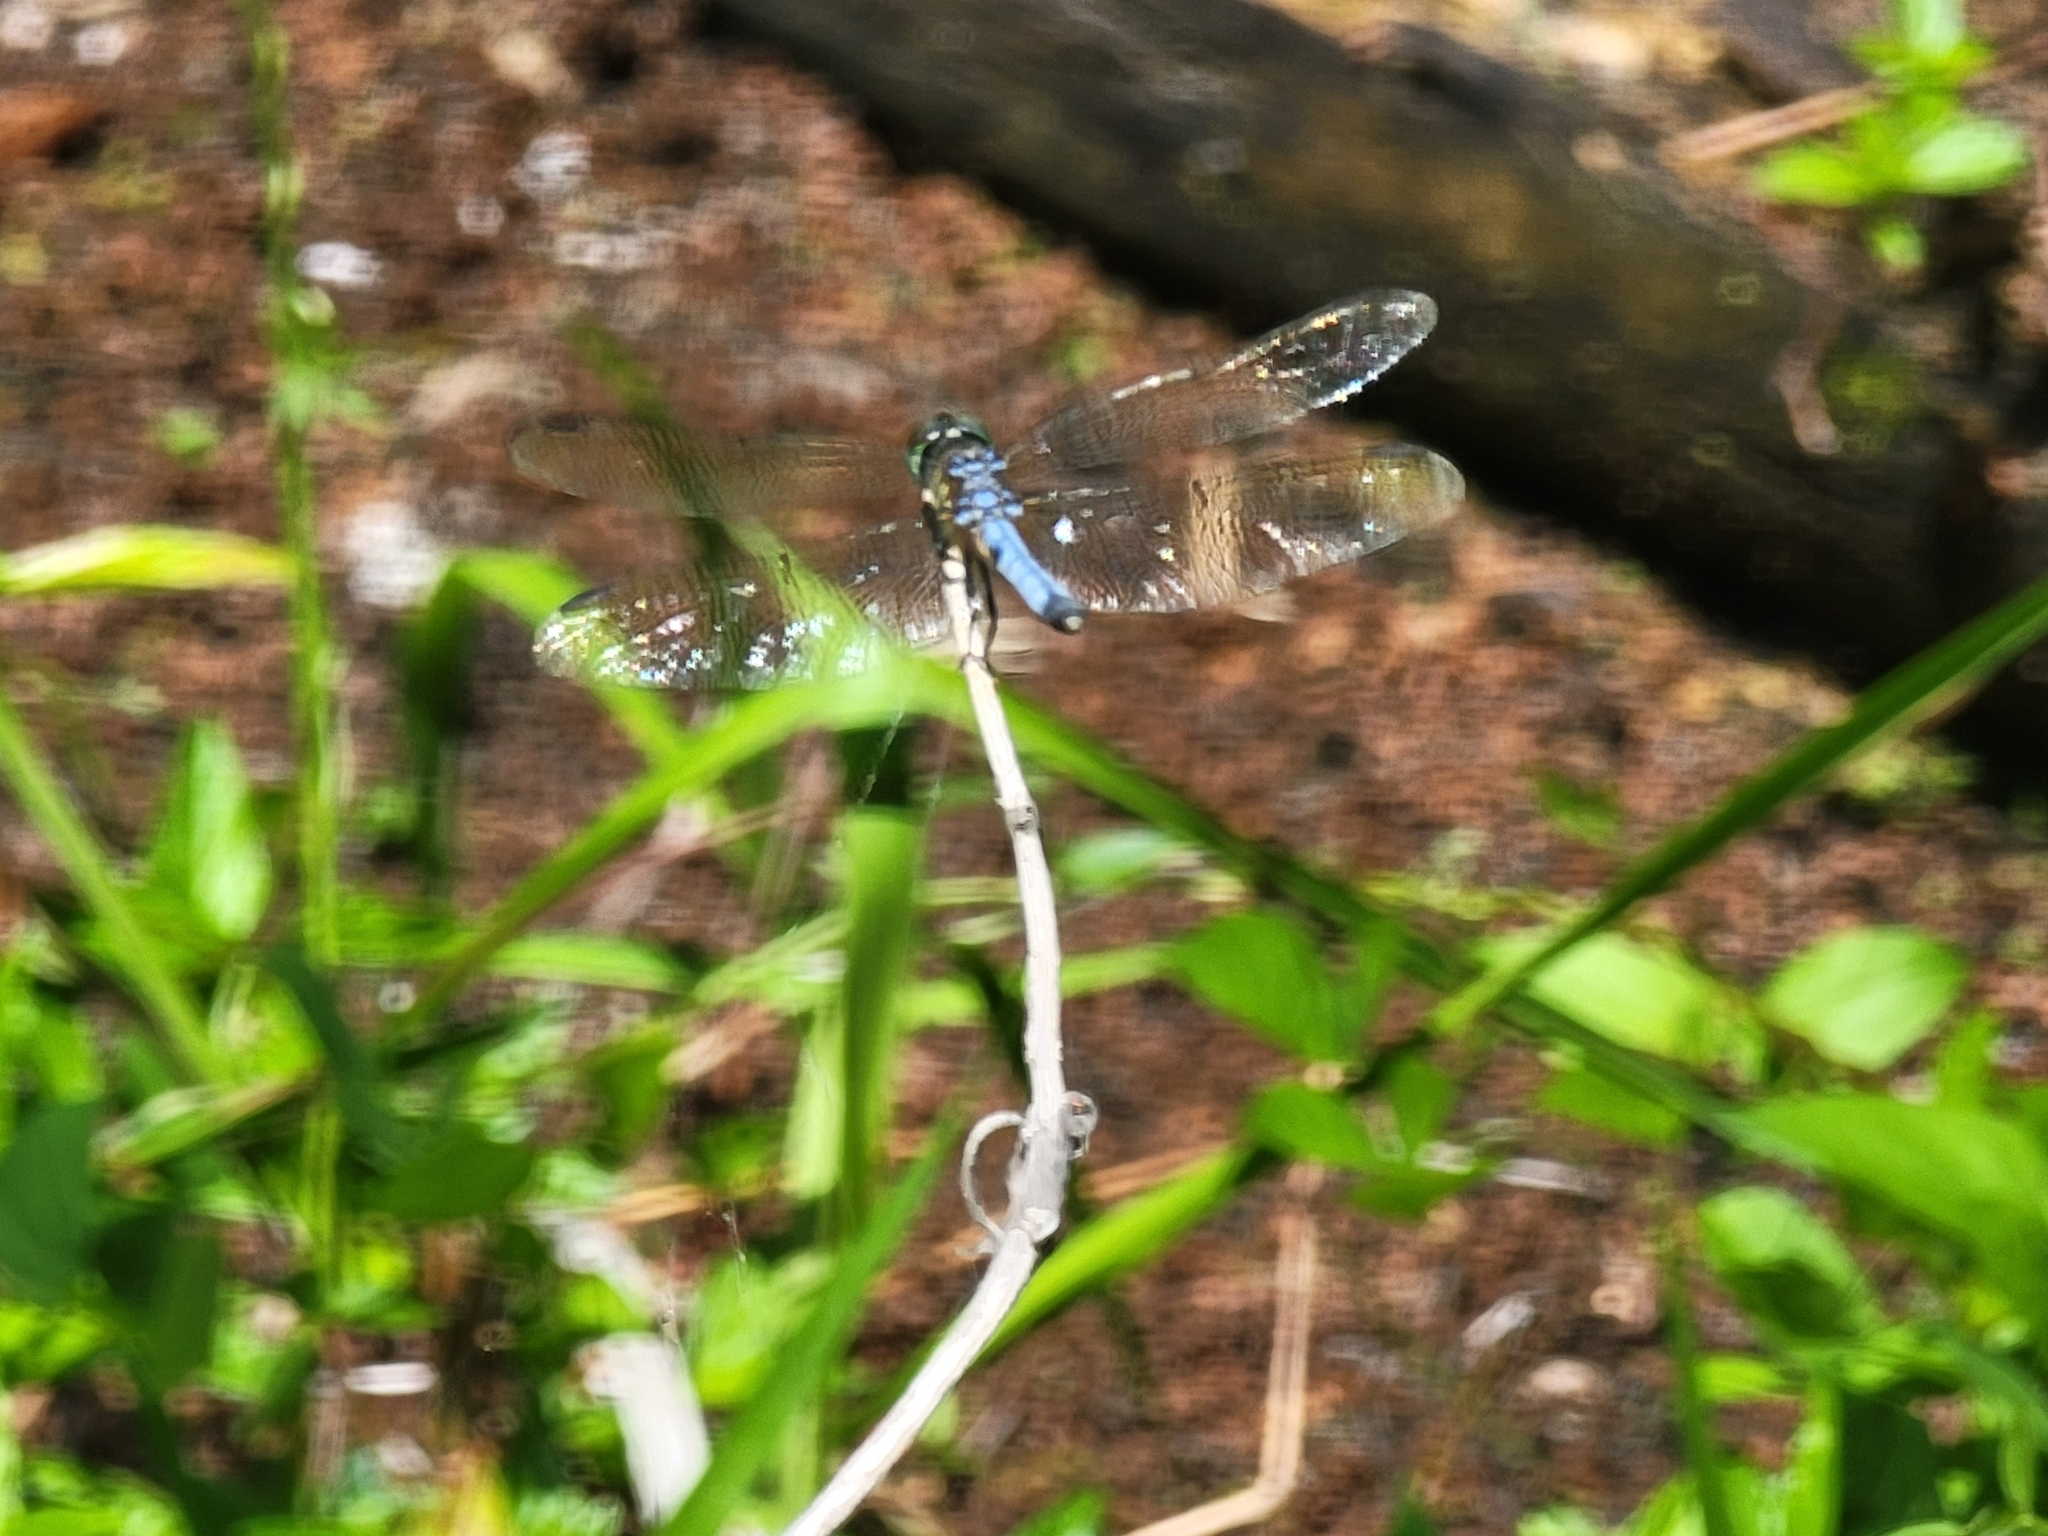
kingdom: Animalia
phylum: Arthropoda
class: Insecta
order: Odonata
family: Libellulidae
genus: Pachydiplax
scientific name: Pachydiplax longipennis
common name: Blue dasher
